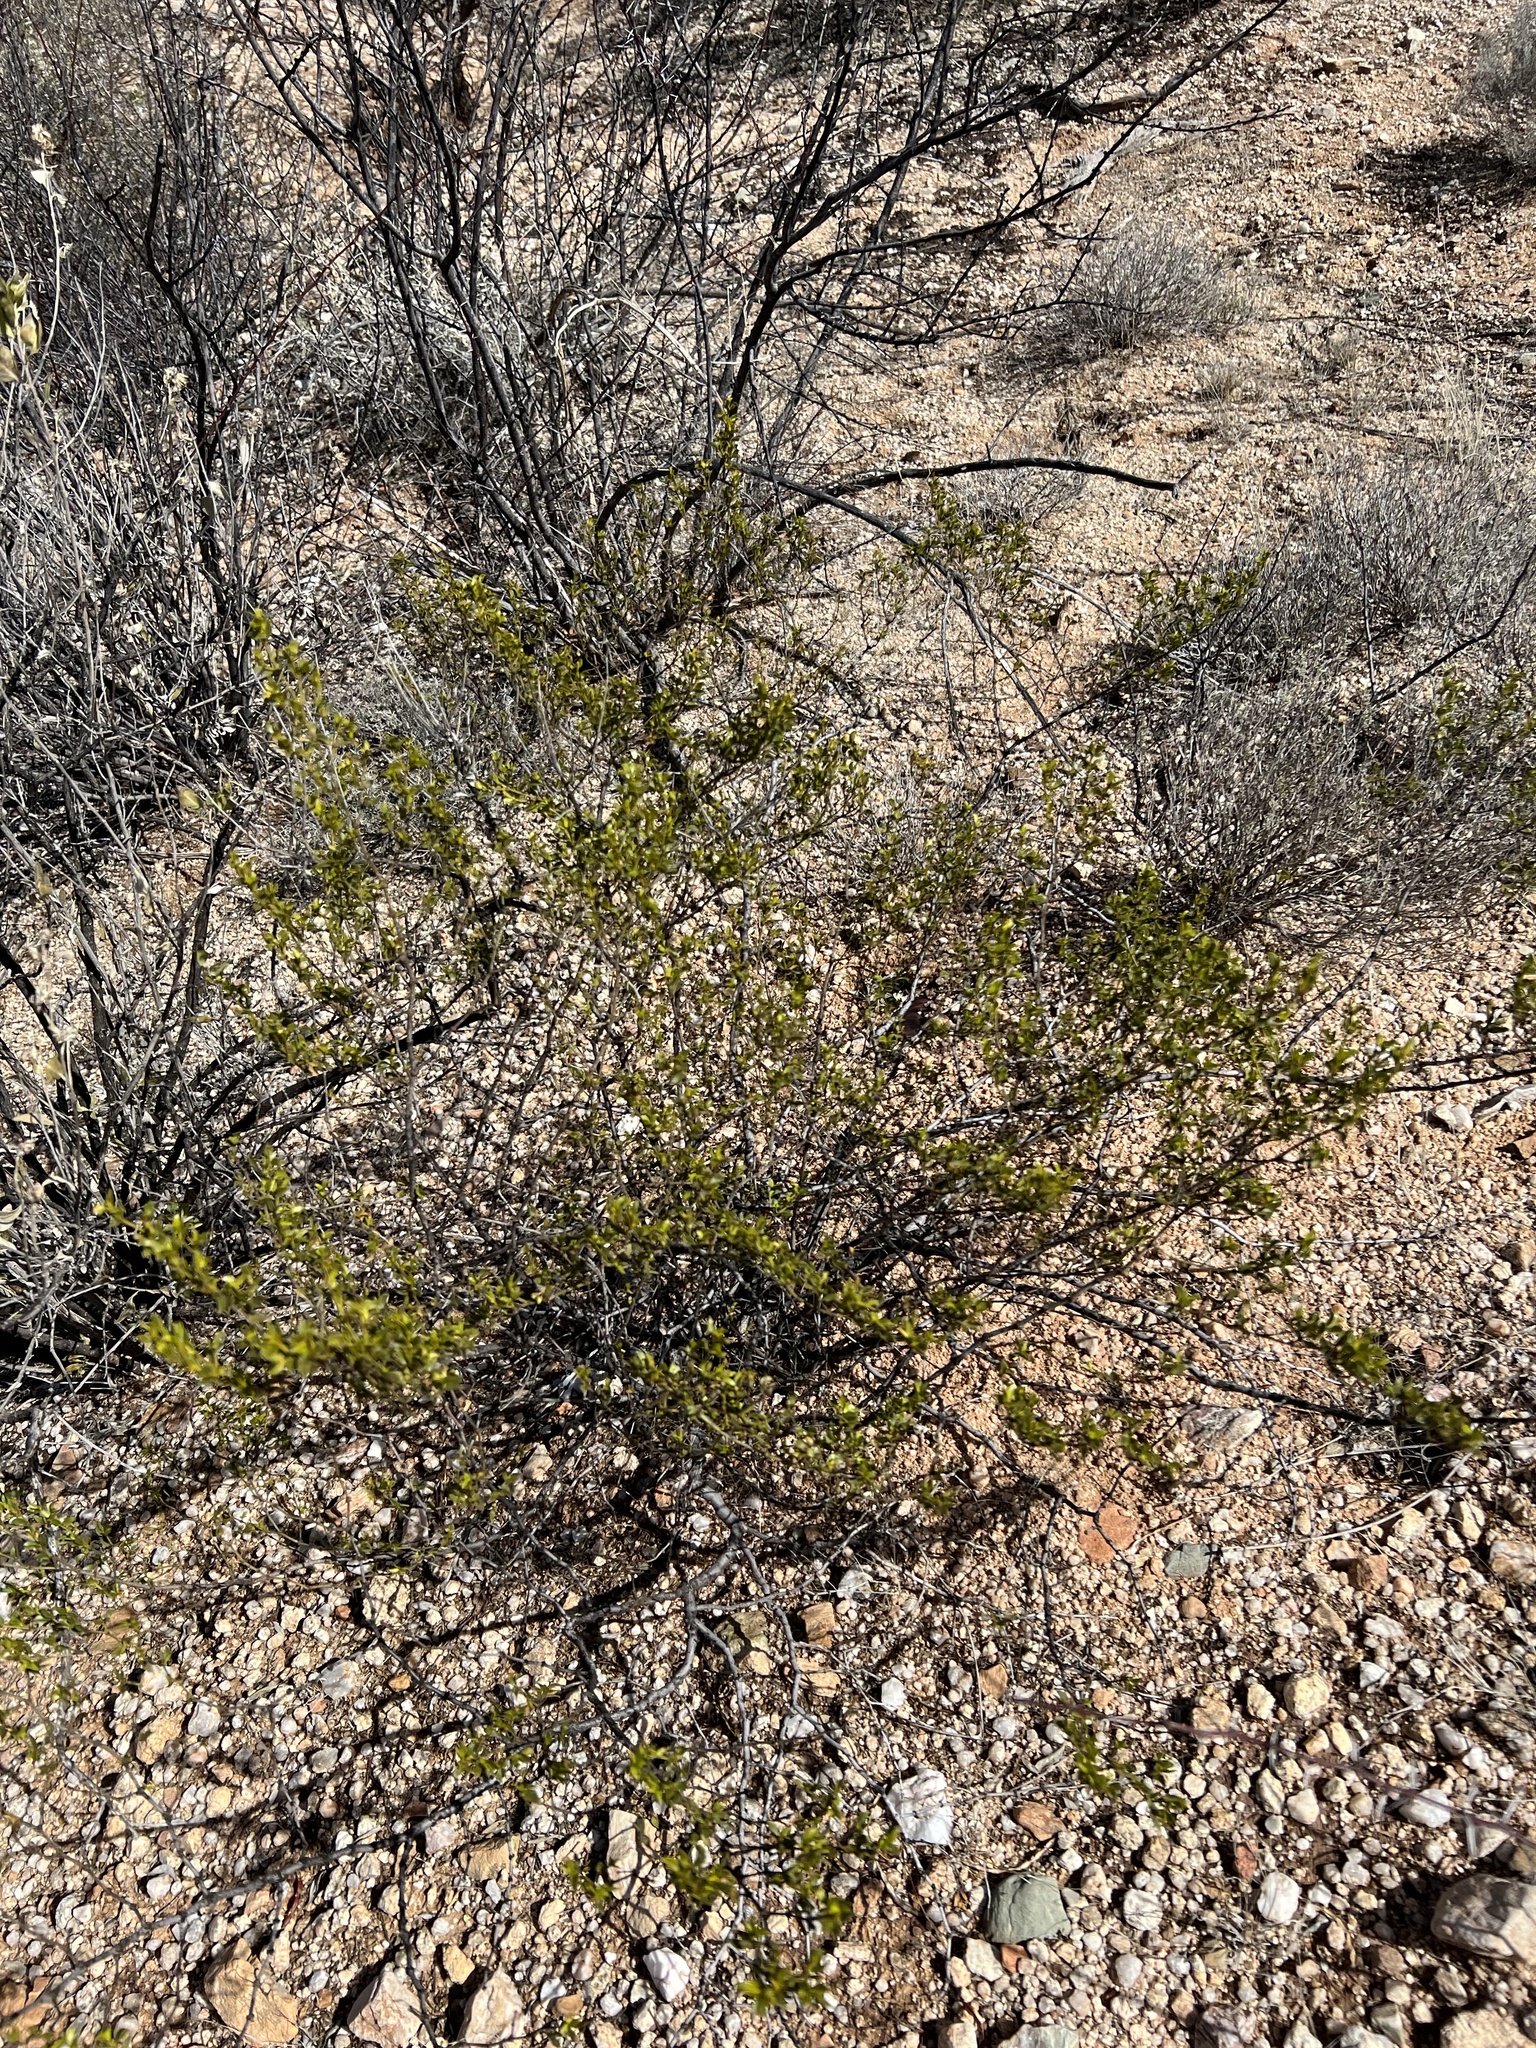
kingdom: Plantae
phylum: Tracheophyta
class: Magnoliopsida
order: Zygophyllales
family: Zygophyllaceae
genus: Larrea
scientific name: Larrea tridentata
